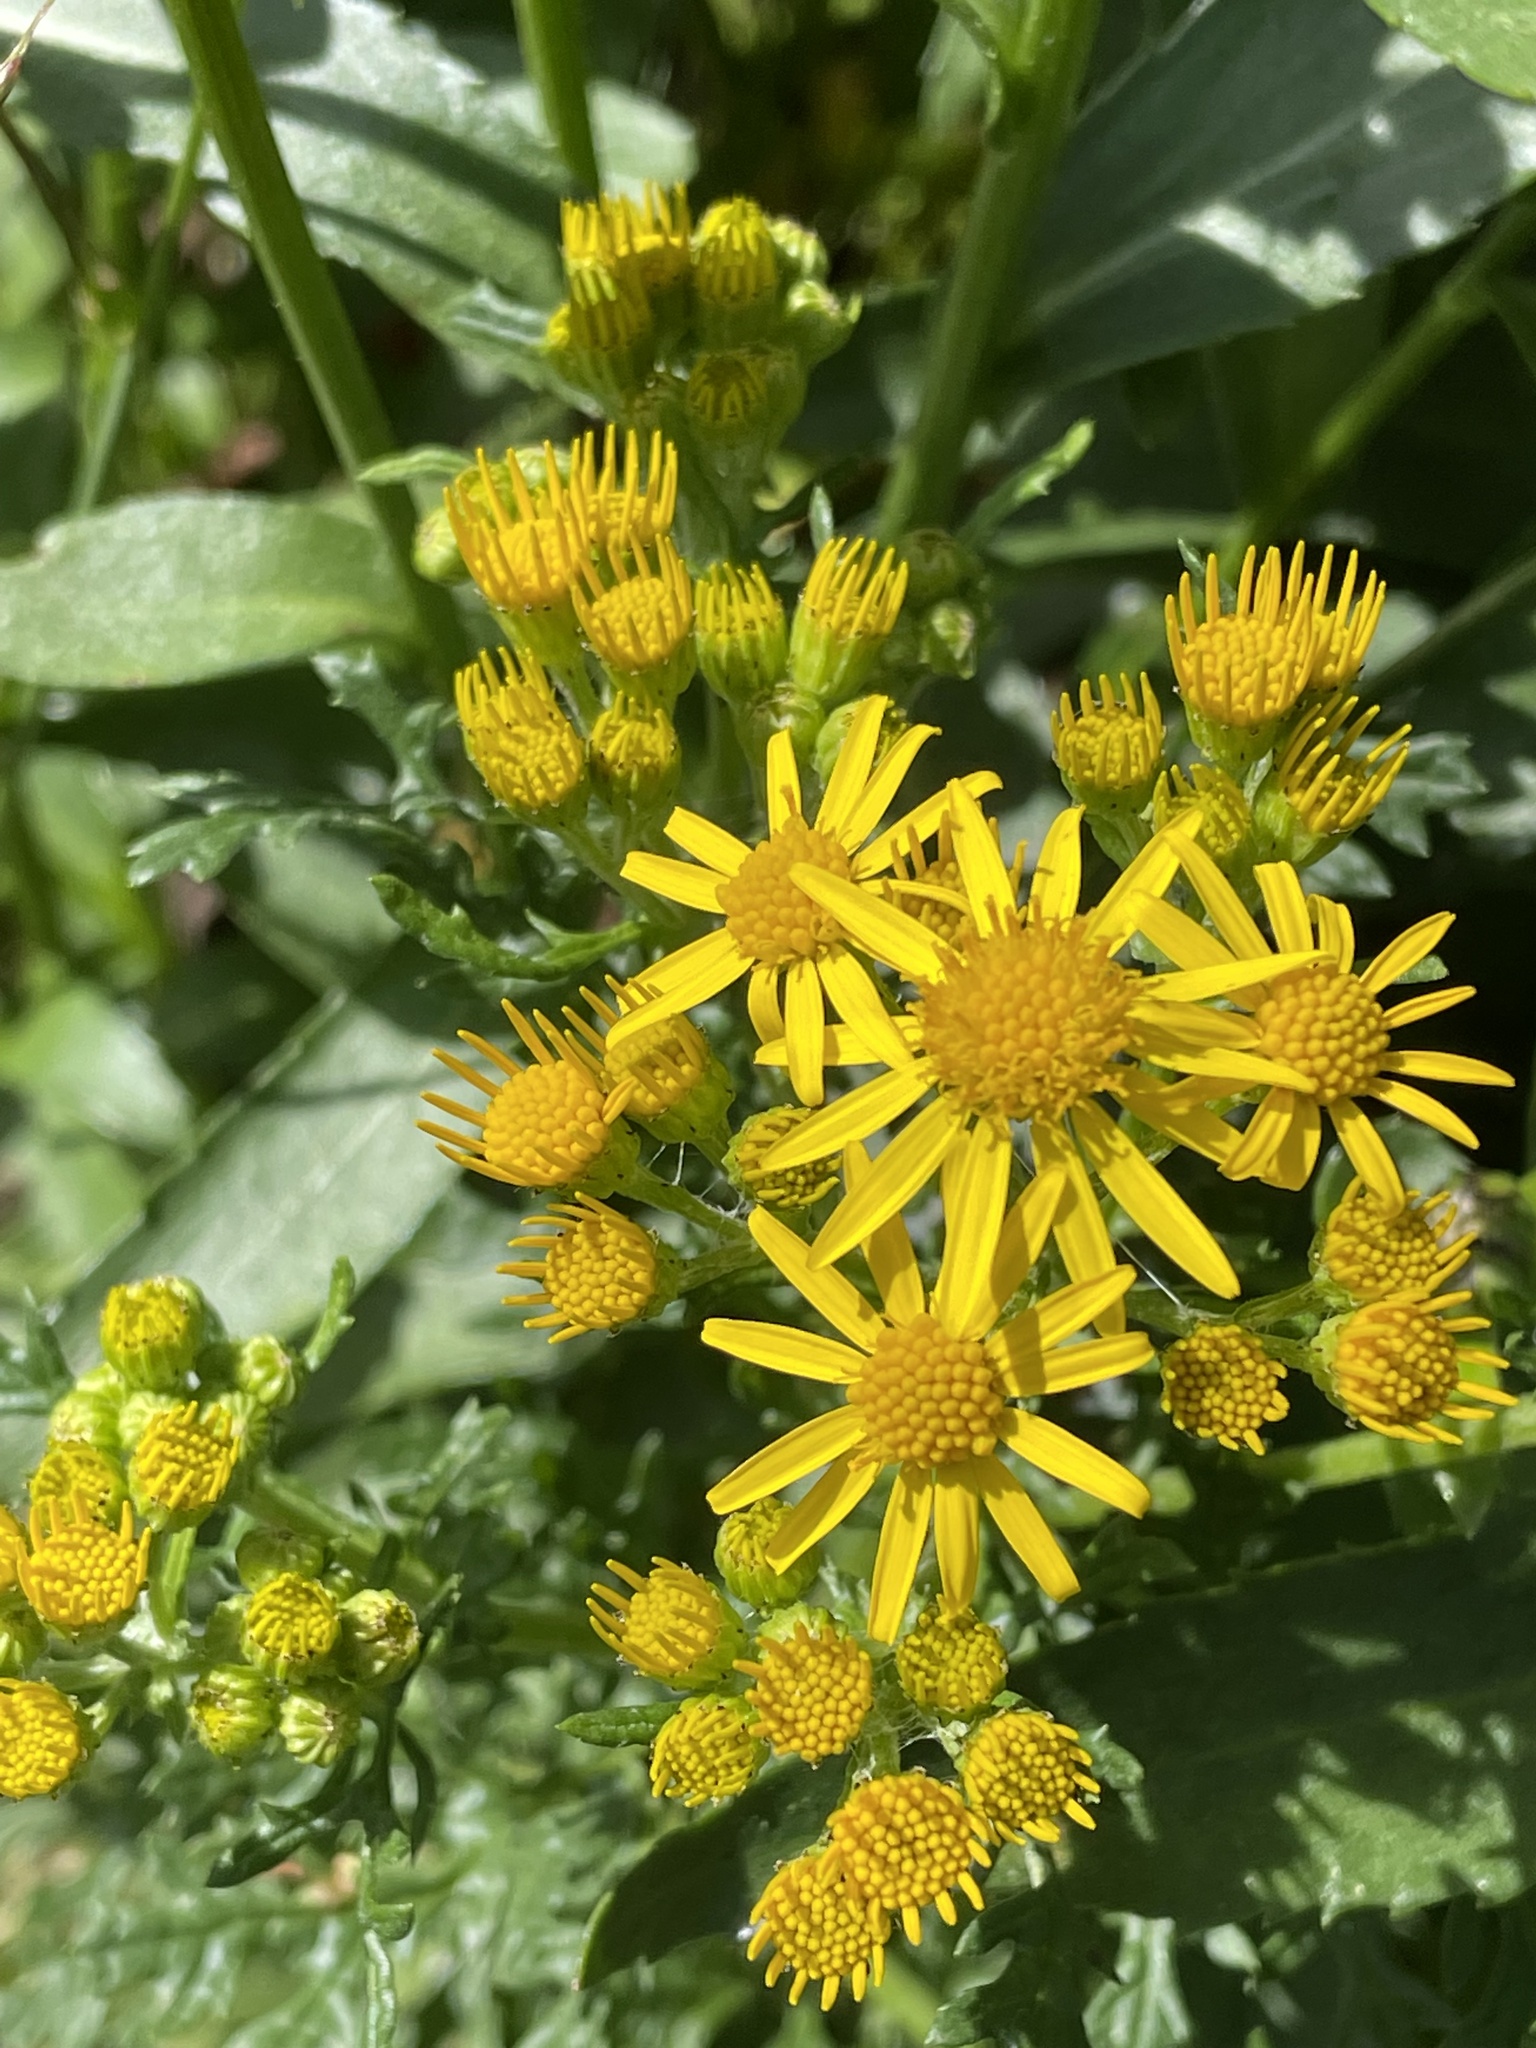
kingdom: Plantae
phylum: Tracheophyta
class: Magnoliopsida
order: Asterales
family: Asteraceae
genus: Jacobaea
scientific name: Jacobaea vulgaris
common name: Stinking willie
